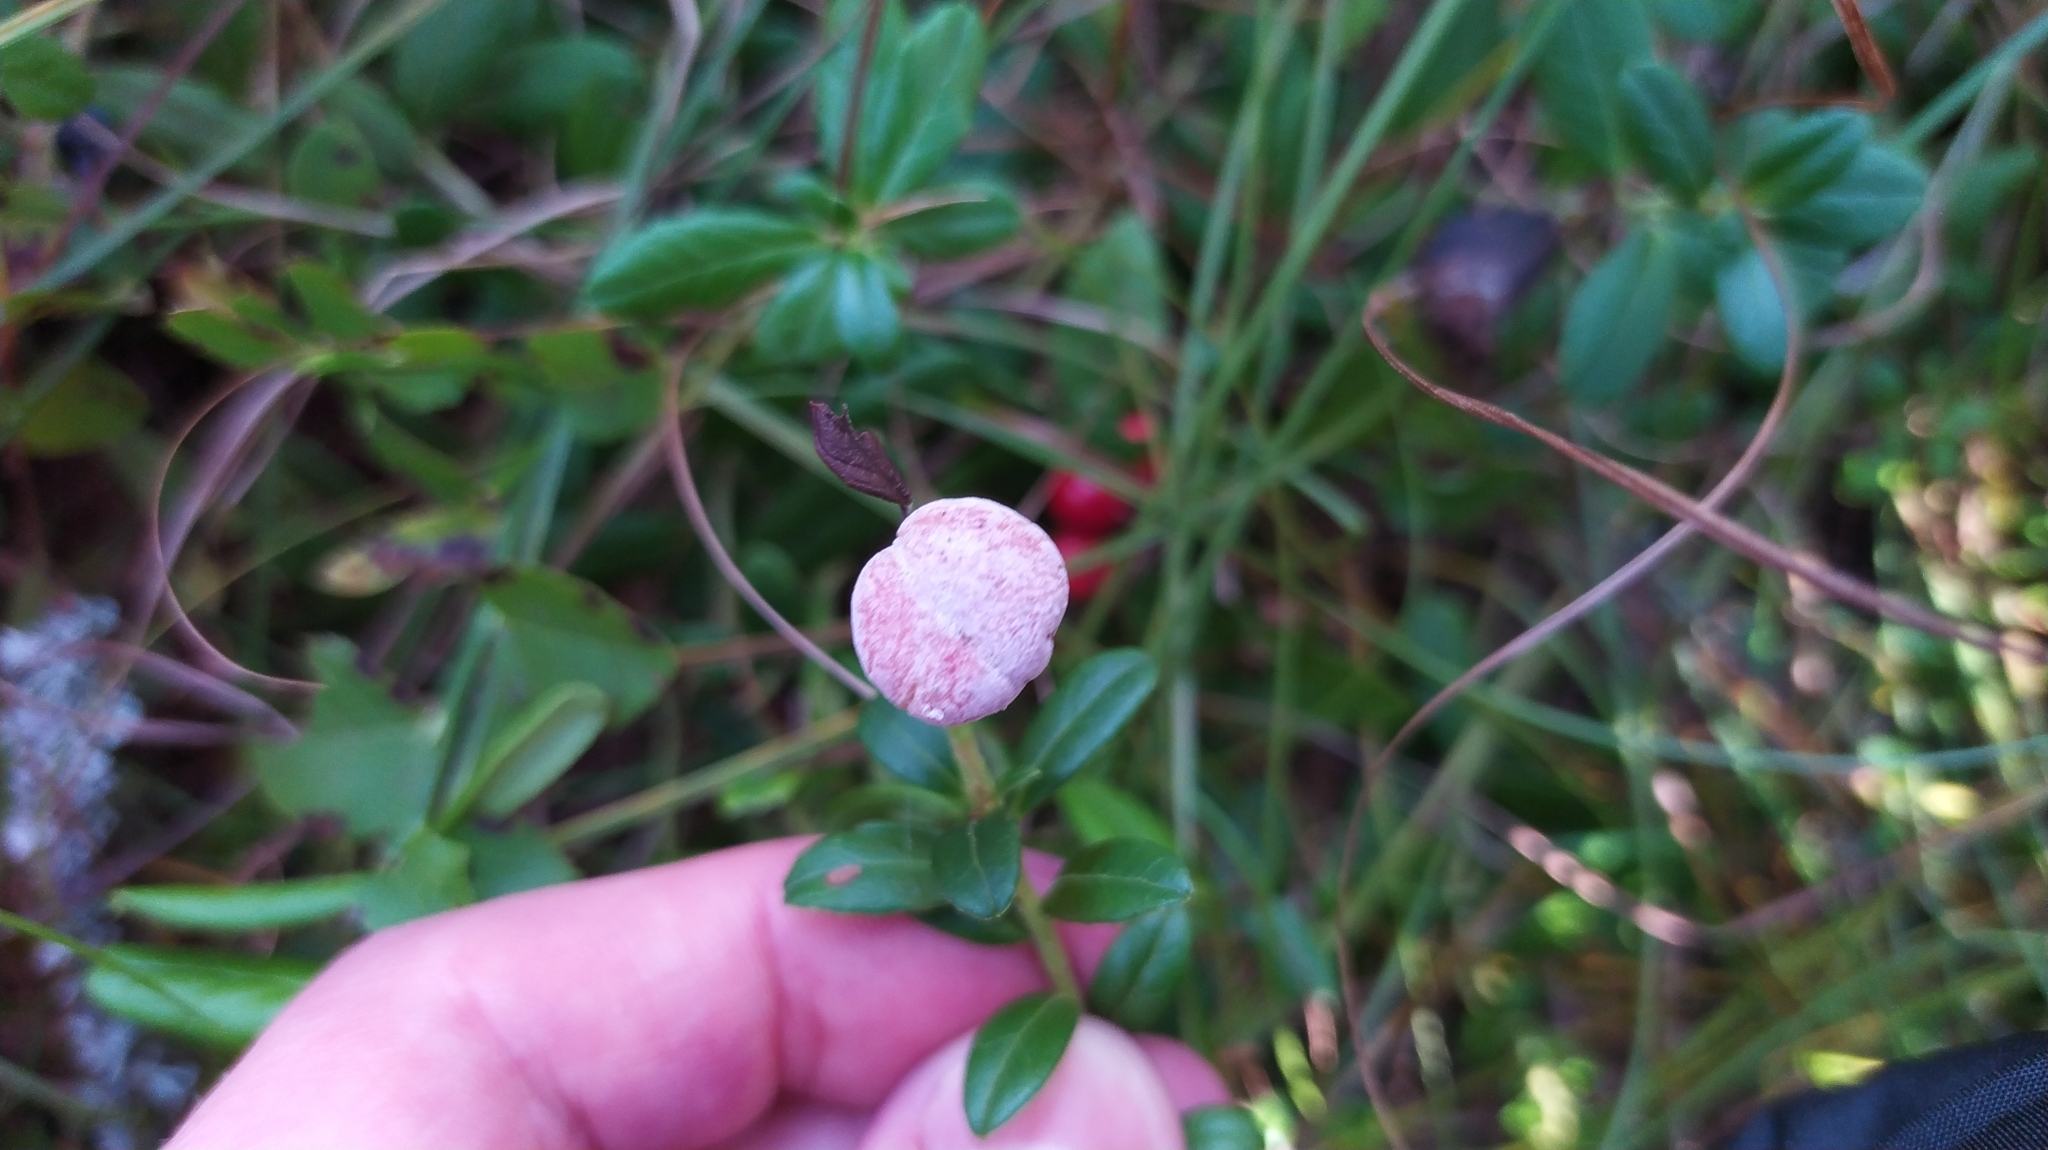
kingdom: Fungi
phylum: Basidiomycota
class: Exobasidiomycetes
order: Exobasidiales
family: Exobasidiaceae
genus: Exobasidium
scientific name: Exobasidium vaccinii
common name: Cowberry redleaf
